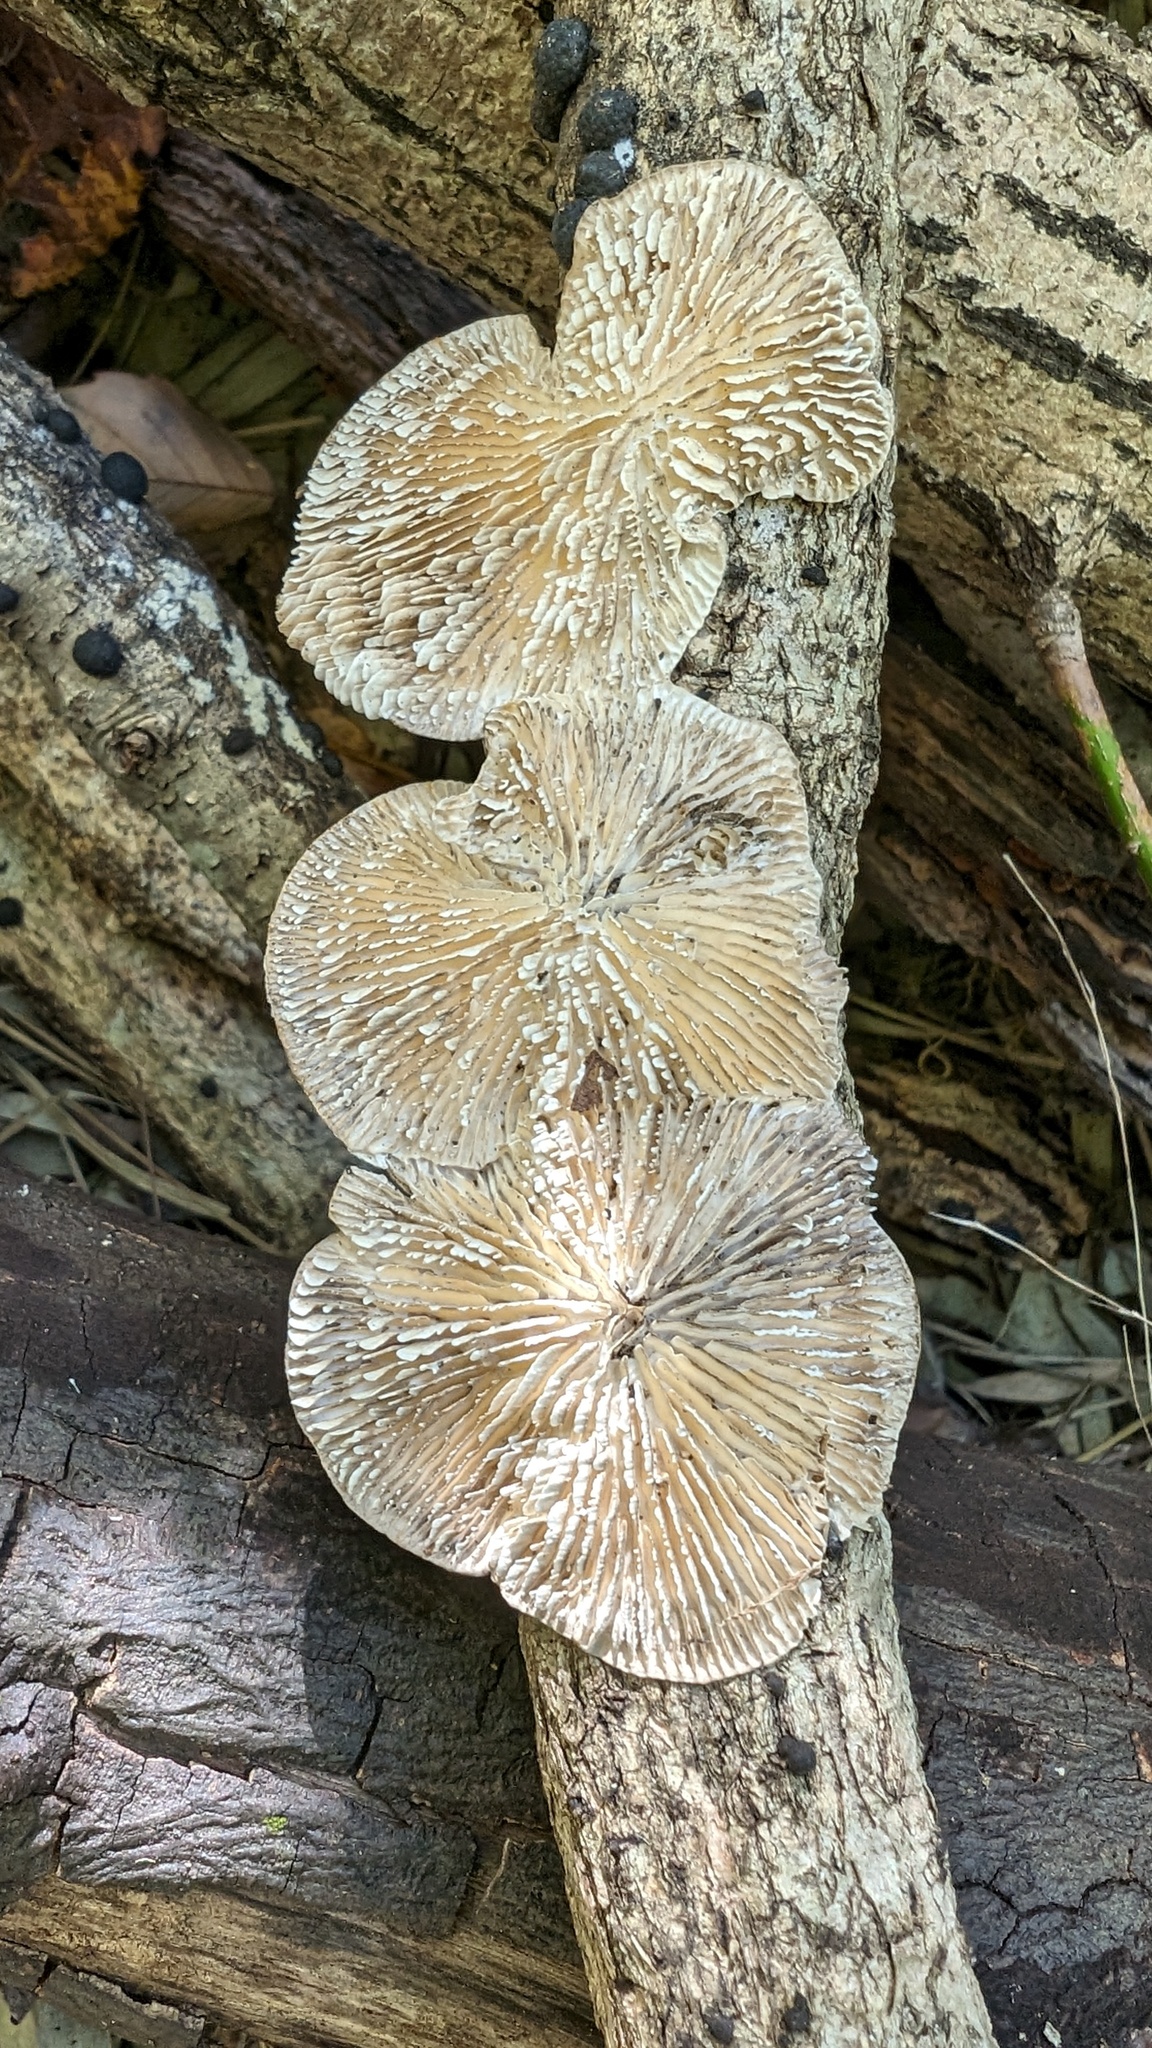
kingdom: Fungi
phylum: Basidiomycota
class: Agaricomycetes
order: Polyporales
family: Polyporaceae
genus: Lenzites
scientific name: Lenzites betulinus
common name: Birch mazegill
